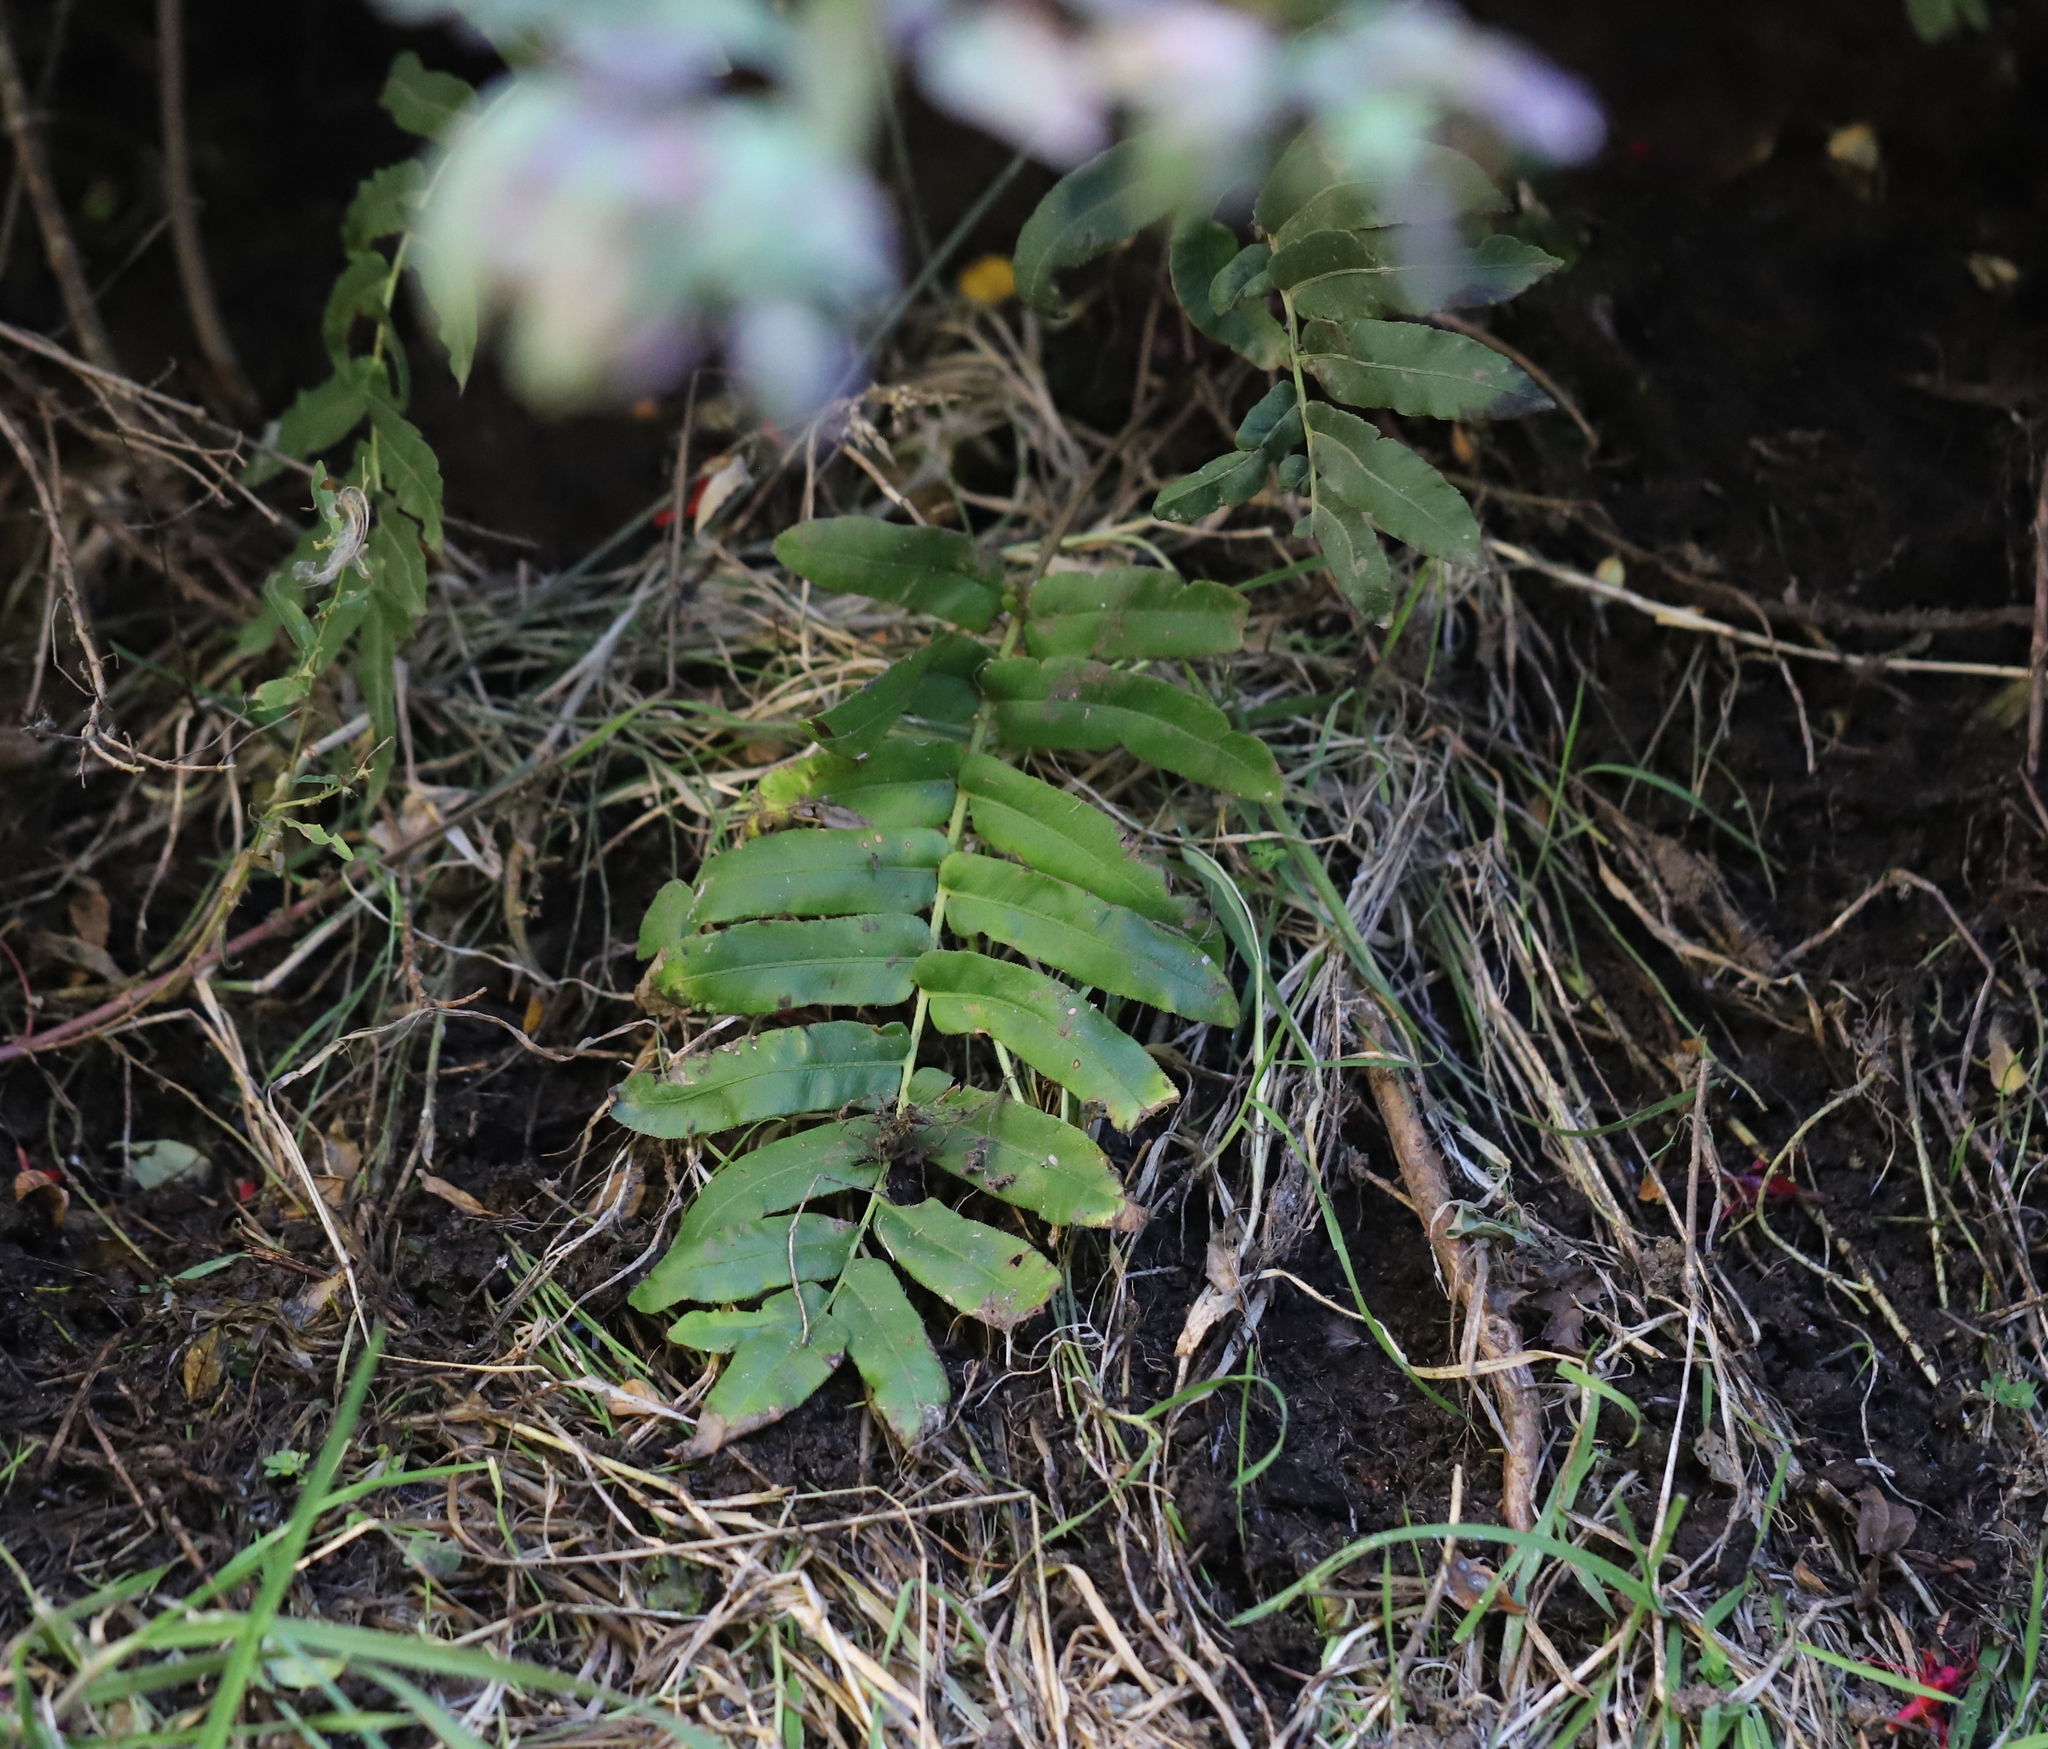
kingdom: Plantae
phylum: Tracheophyta
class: Polypodiopsida
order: Polypodiales
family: Blechnaceae
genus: Parablechnum
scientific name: Parablechnum chilense
